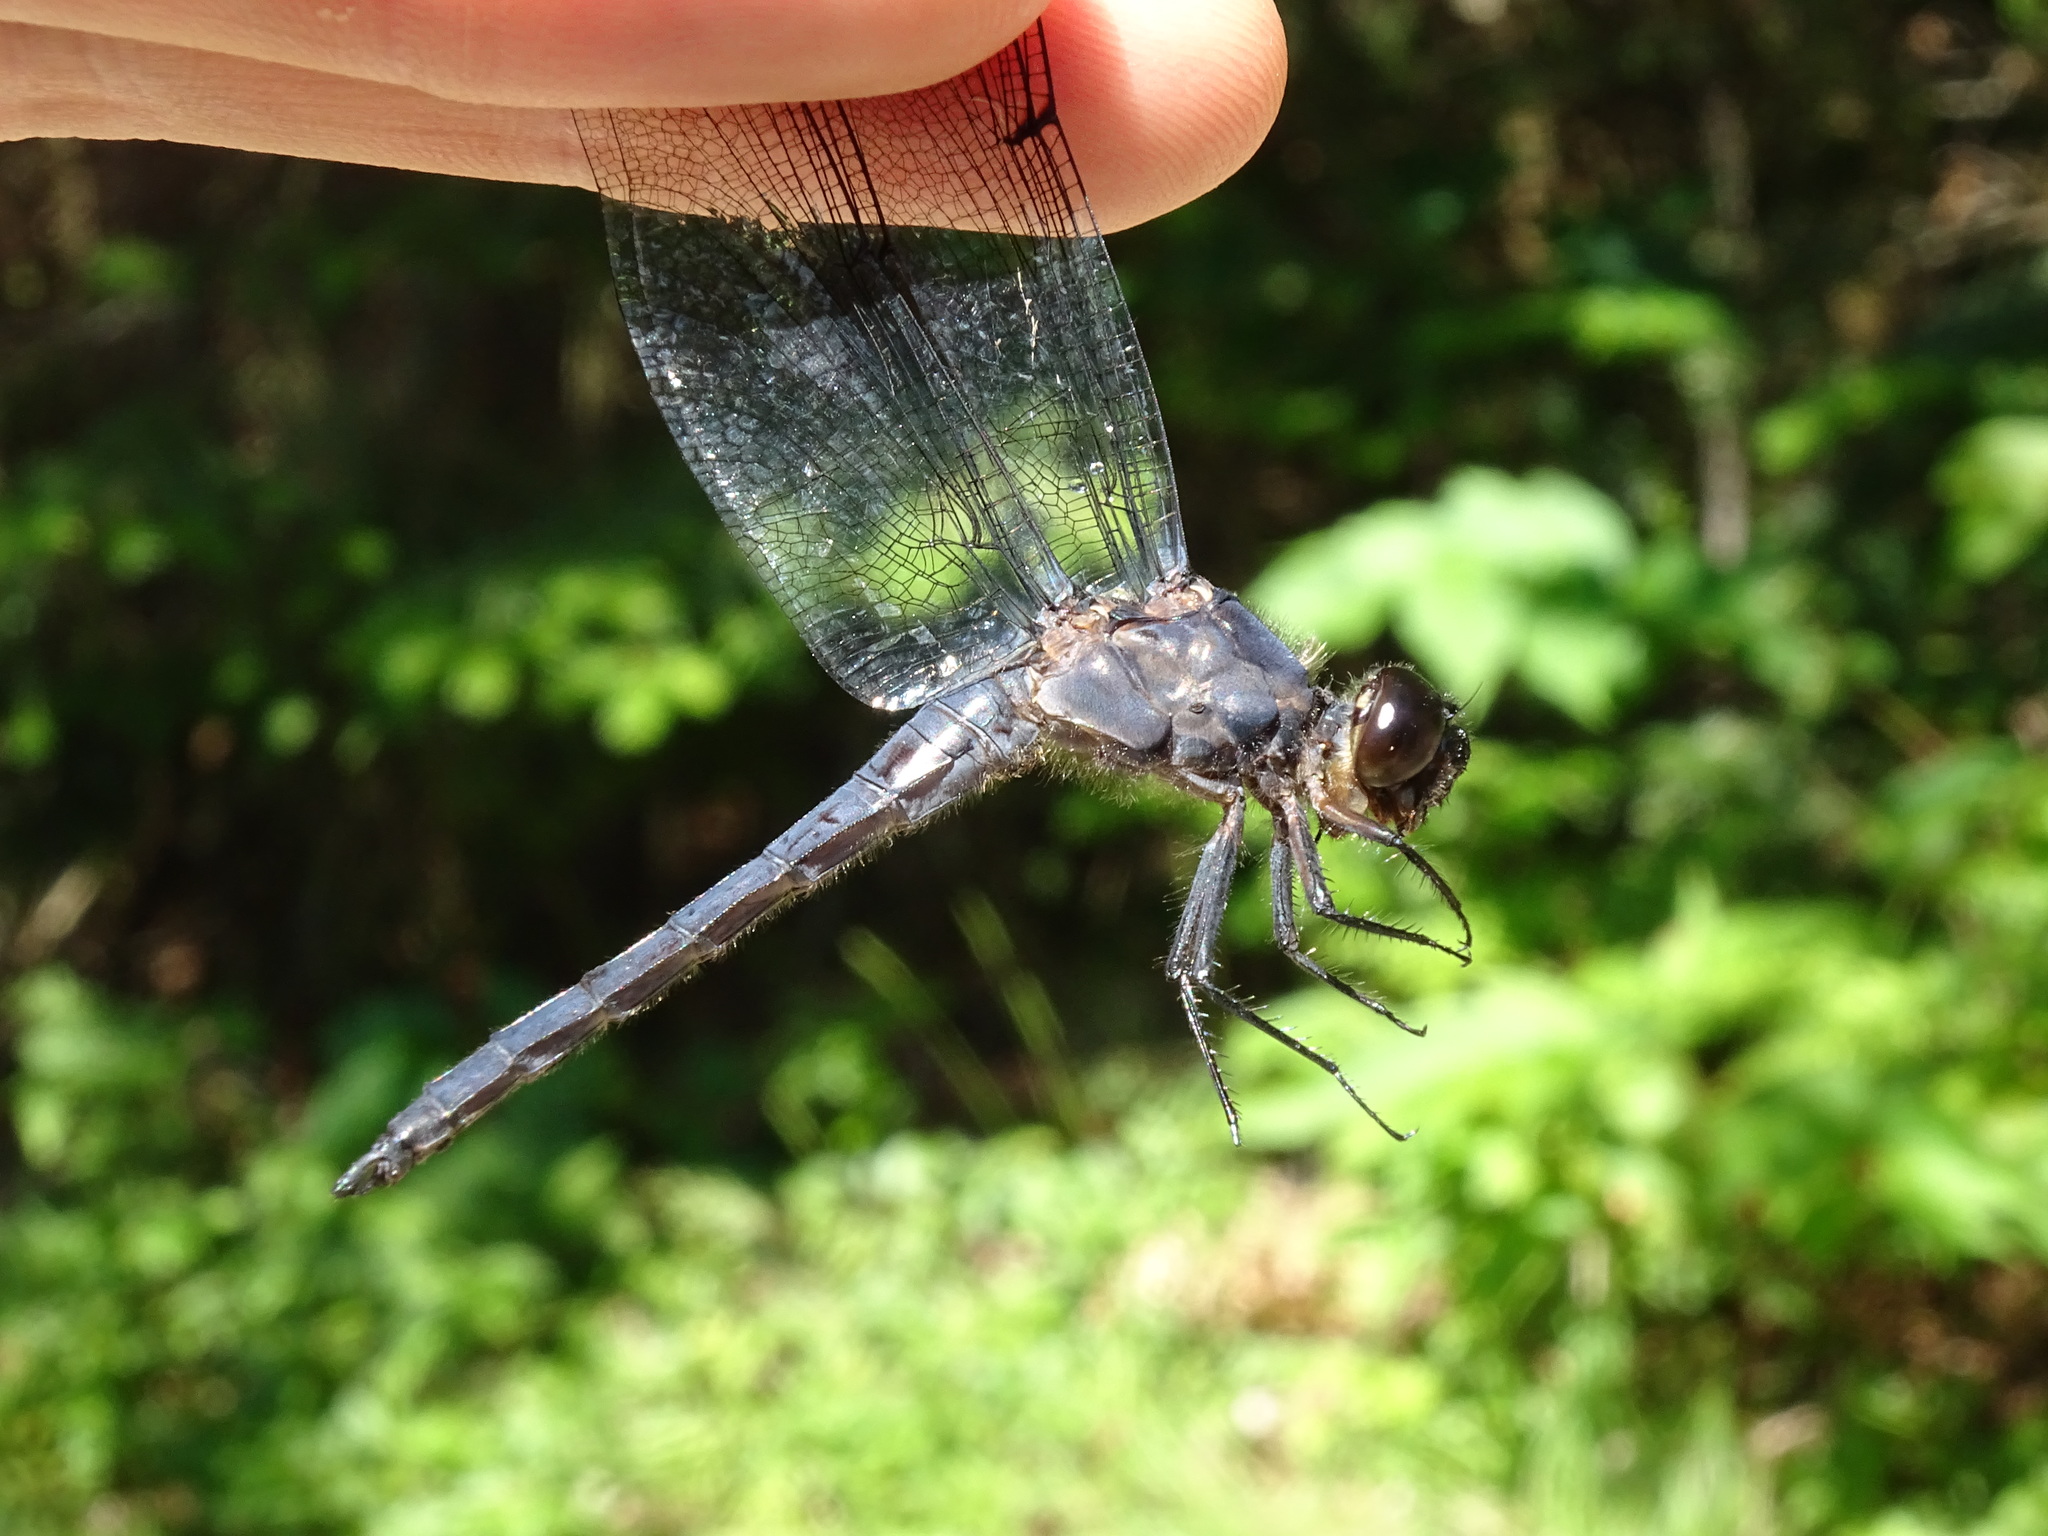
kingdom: Animalia
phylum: Arthropoda
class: Insecta
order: Odonata
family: Libellulidae
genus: Libellula
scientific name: Libellula incesta
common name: Slaty skimmer
